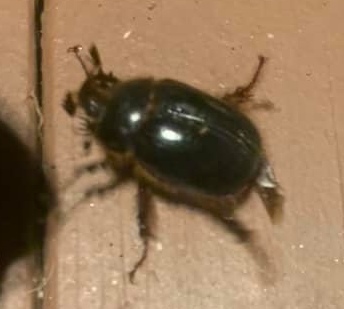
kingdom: Animalia
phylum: Arthropoda
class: Insecta
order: Coleoptera
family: Pleocomidae
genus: Pleocoma
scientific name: Pleocoma australis
